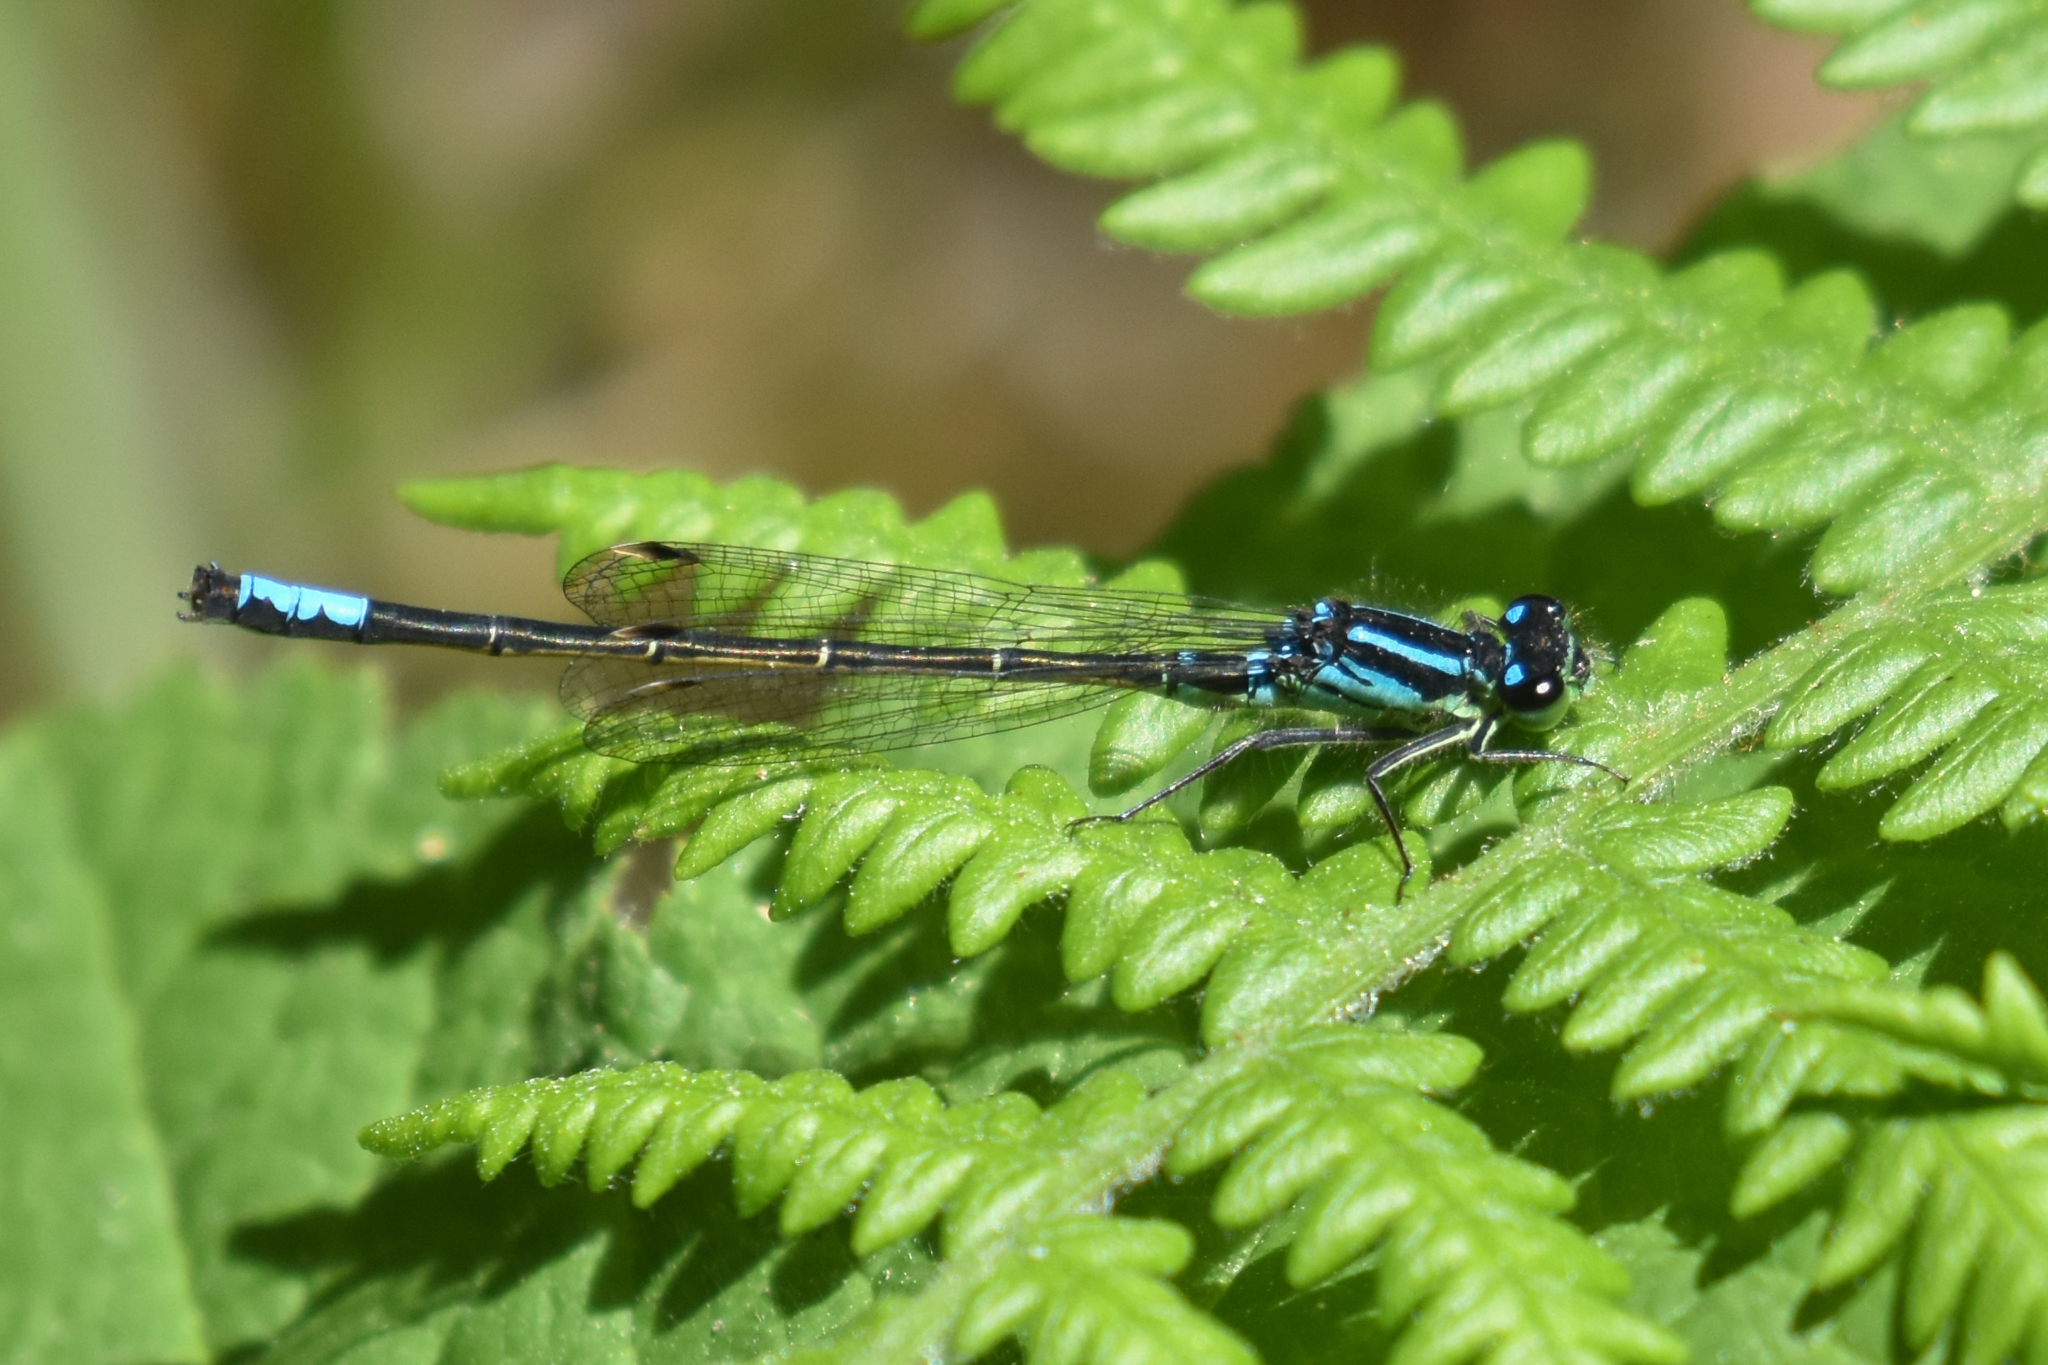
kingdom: Animalia
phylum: Arthropoda
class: Insecta
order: Odonata
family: Coenagrionidae
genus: Ischnura
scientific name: Ischnura erratica
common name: Swift forktail
